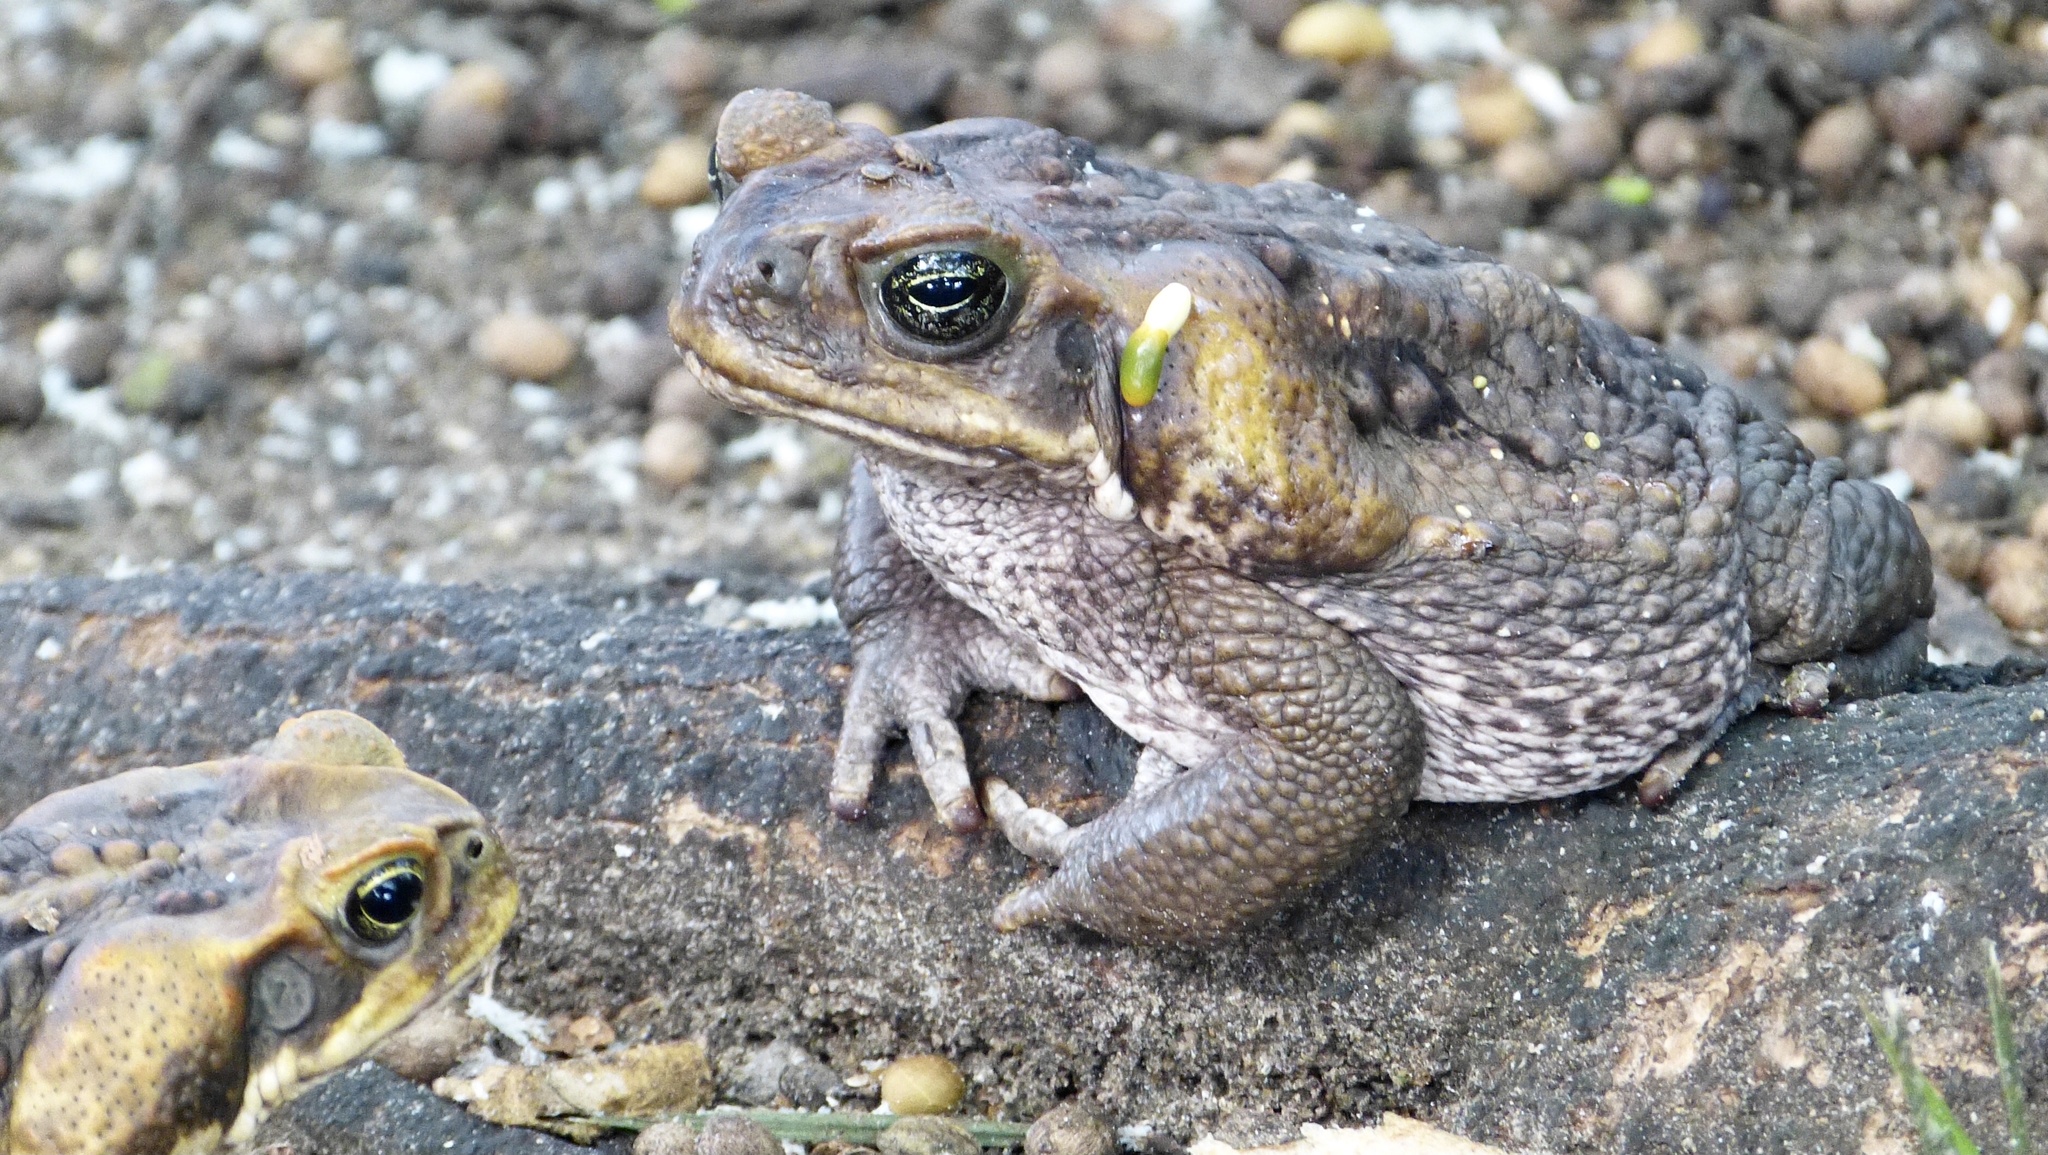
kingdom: Animalia
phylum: Chordata
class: Amphibia
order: Anura
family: Bufonidae
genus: Rhinella
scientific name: Rhinella marina
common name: Cane toad
